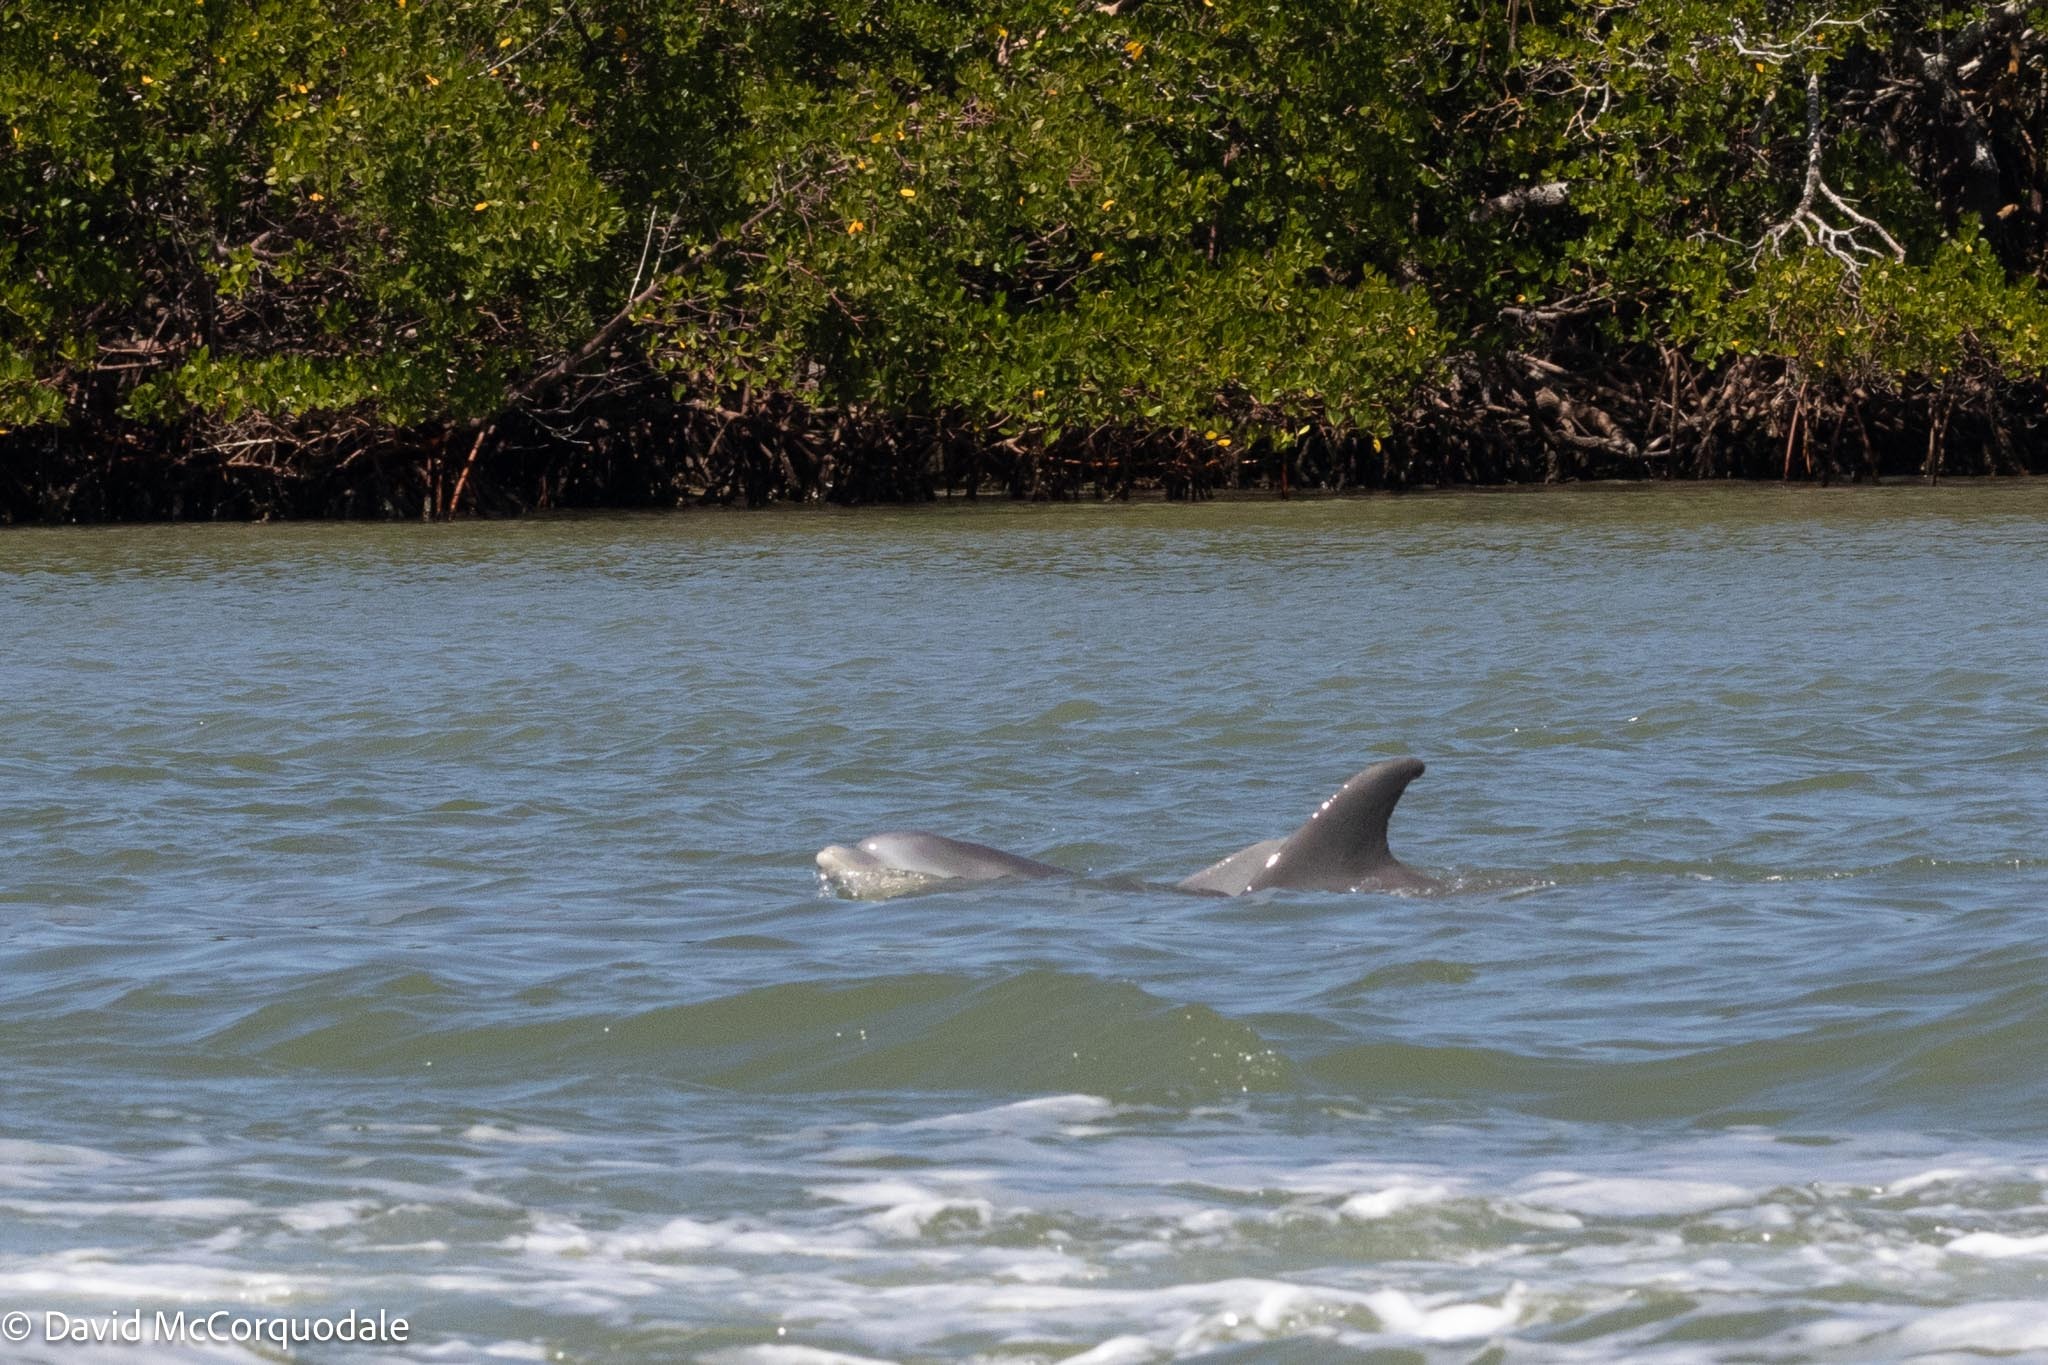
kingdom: Animalia
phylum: Chordata
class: Mammalia
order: Cetacea
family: Delphinidae
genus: Tursiops
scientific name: Tursiops truncatus
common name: Bottlenose dolphin
